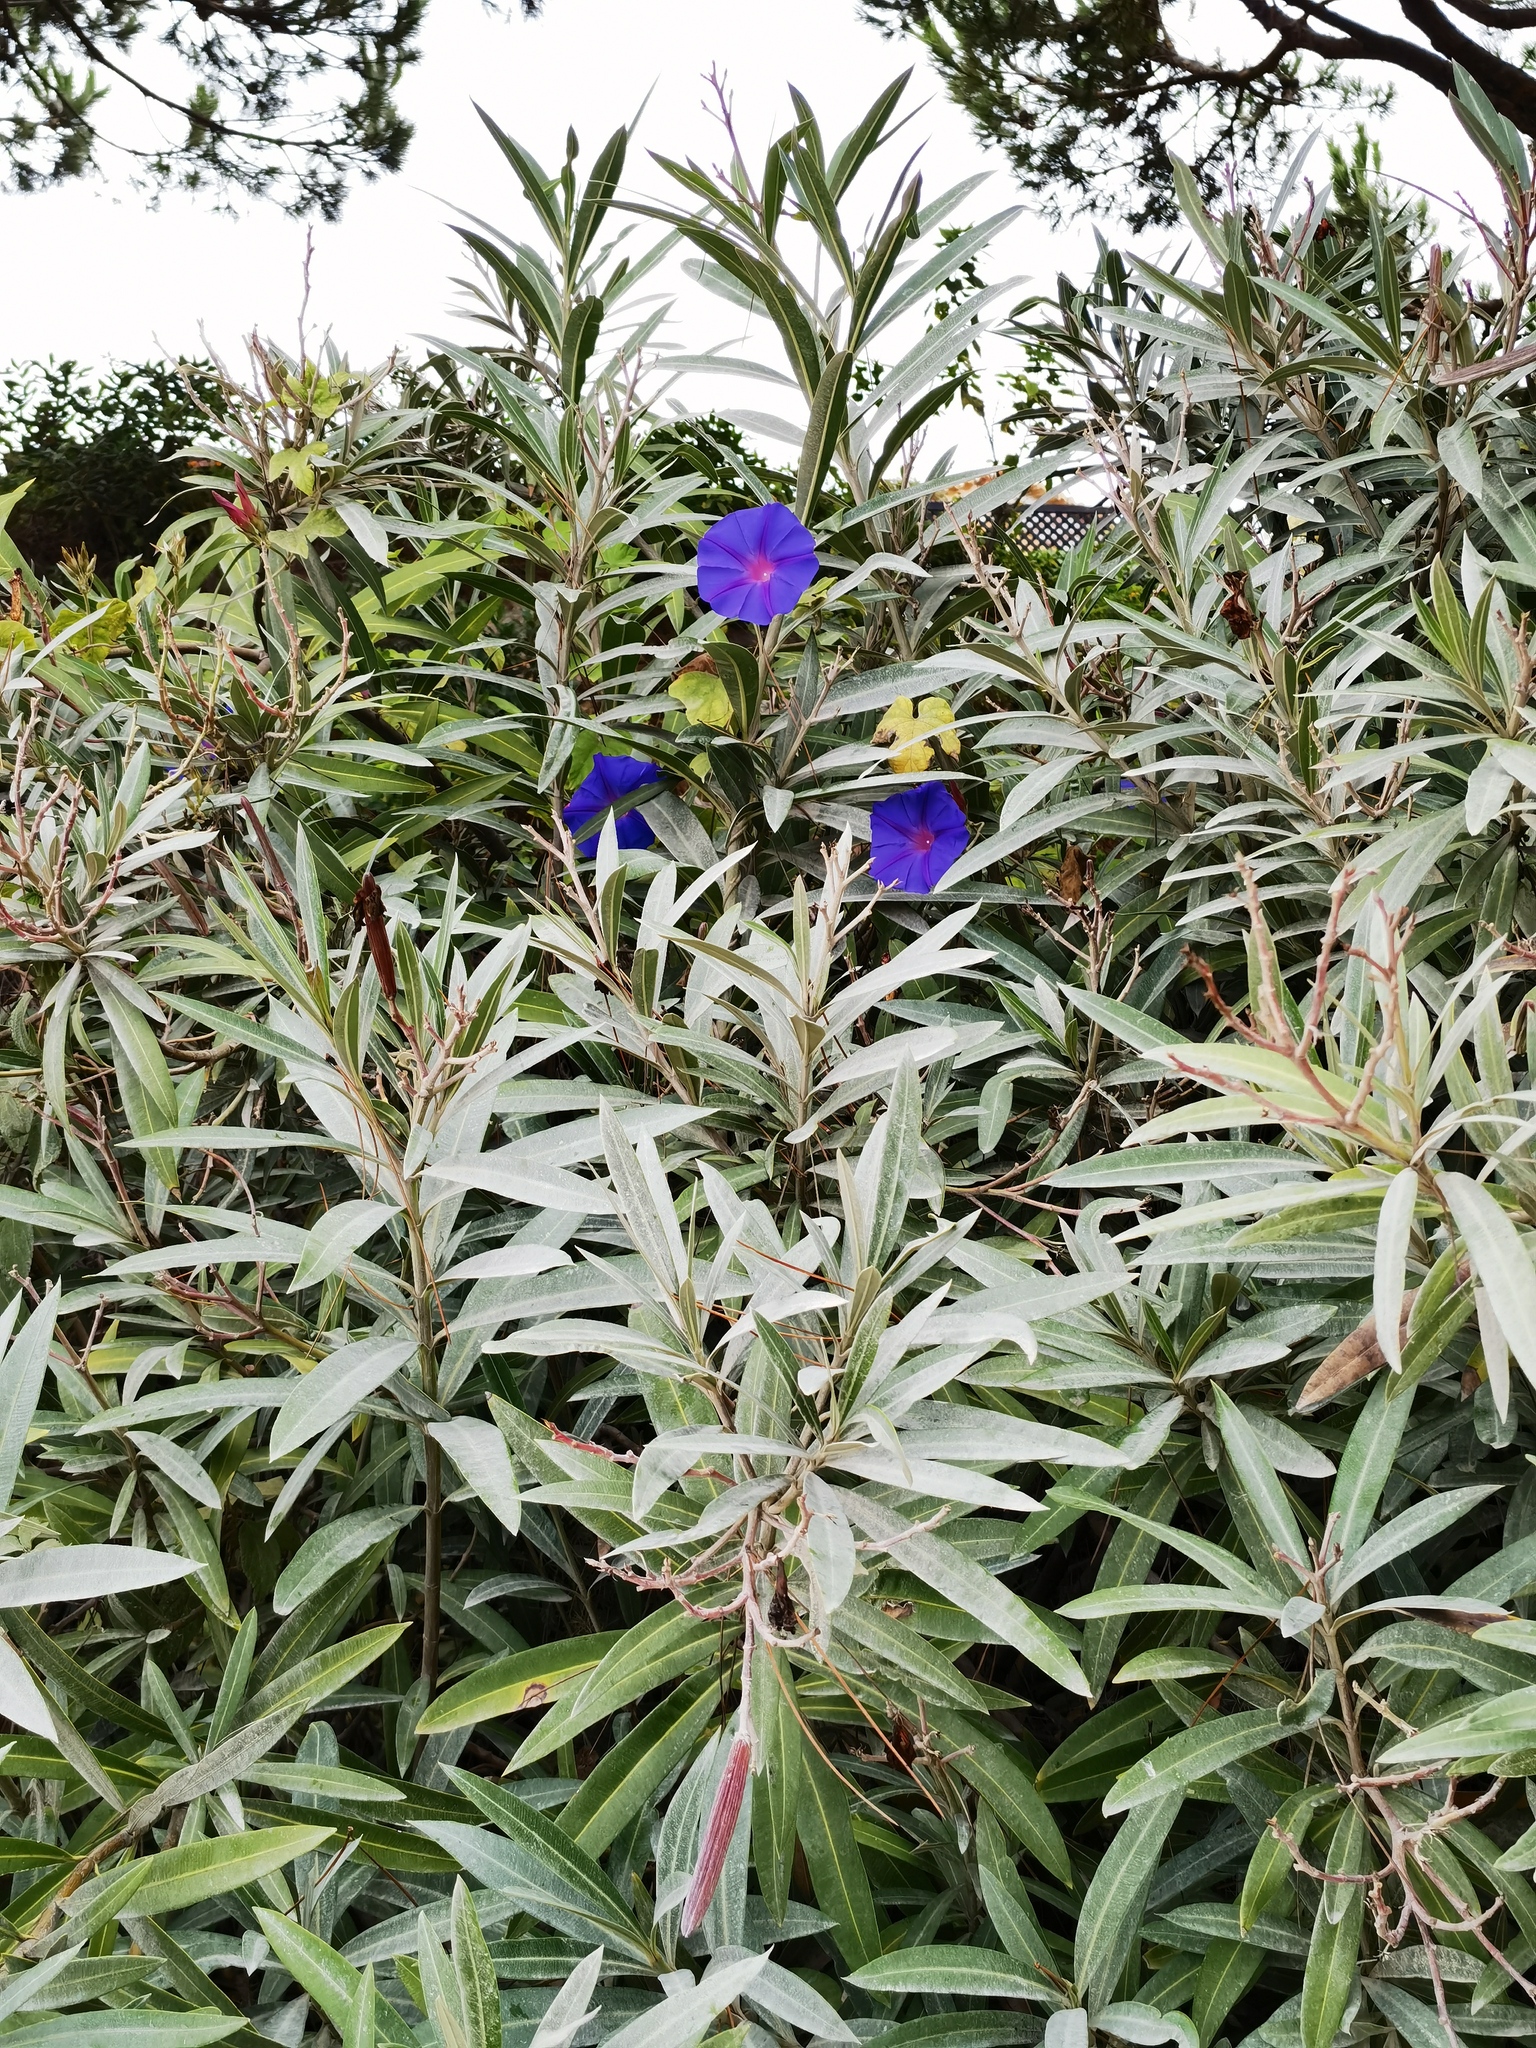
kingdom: Plantae
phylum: Tracheophyta
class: Magnoliopsida
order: Solanales
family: Convolvulaceae
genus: Ipomoea
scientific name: Ipomoea indica
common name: Blue dawnflower
